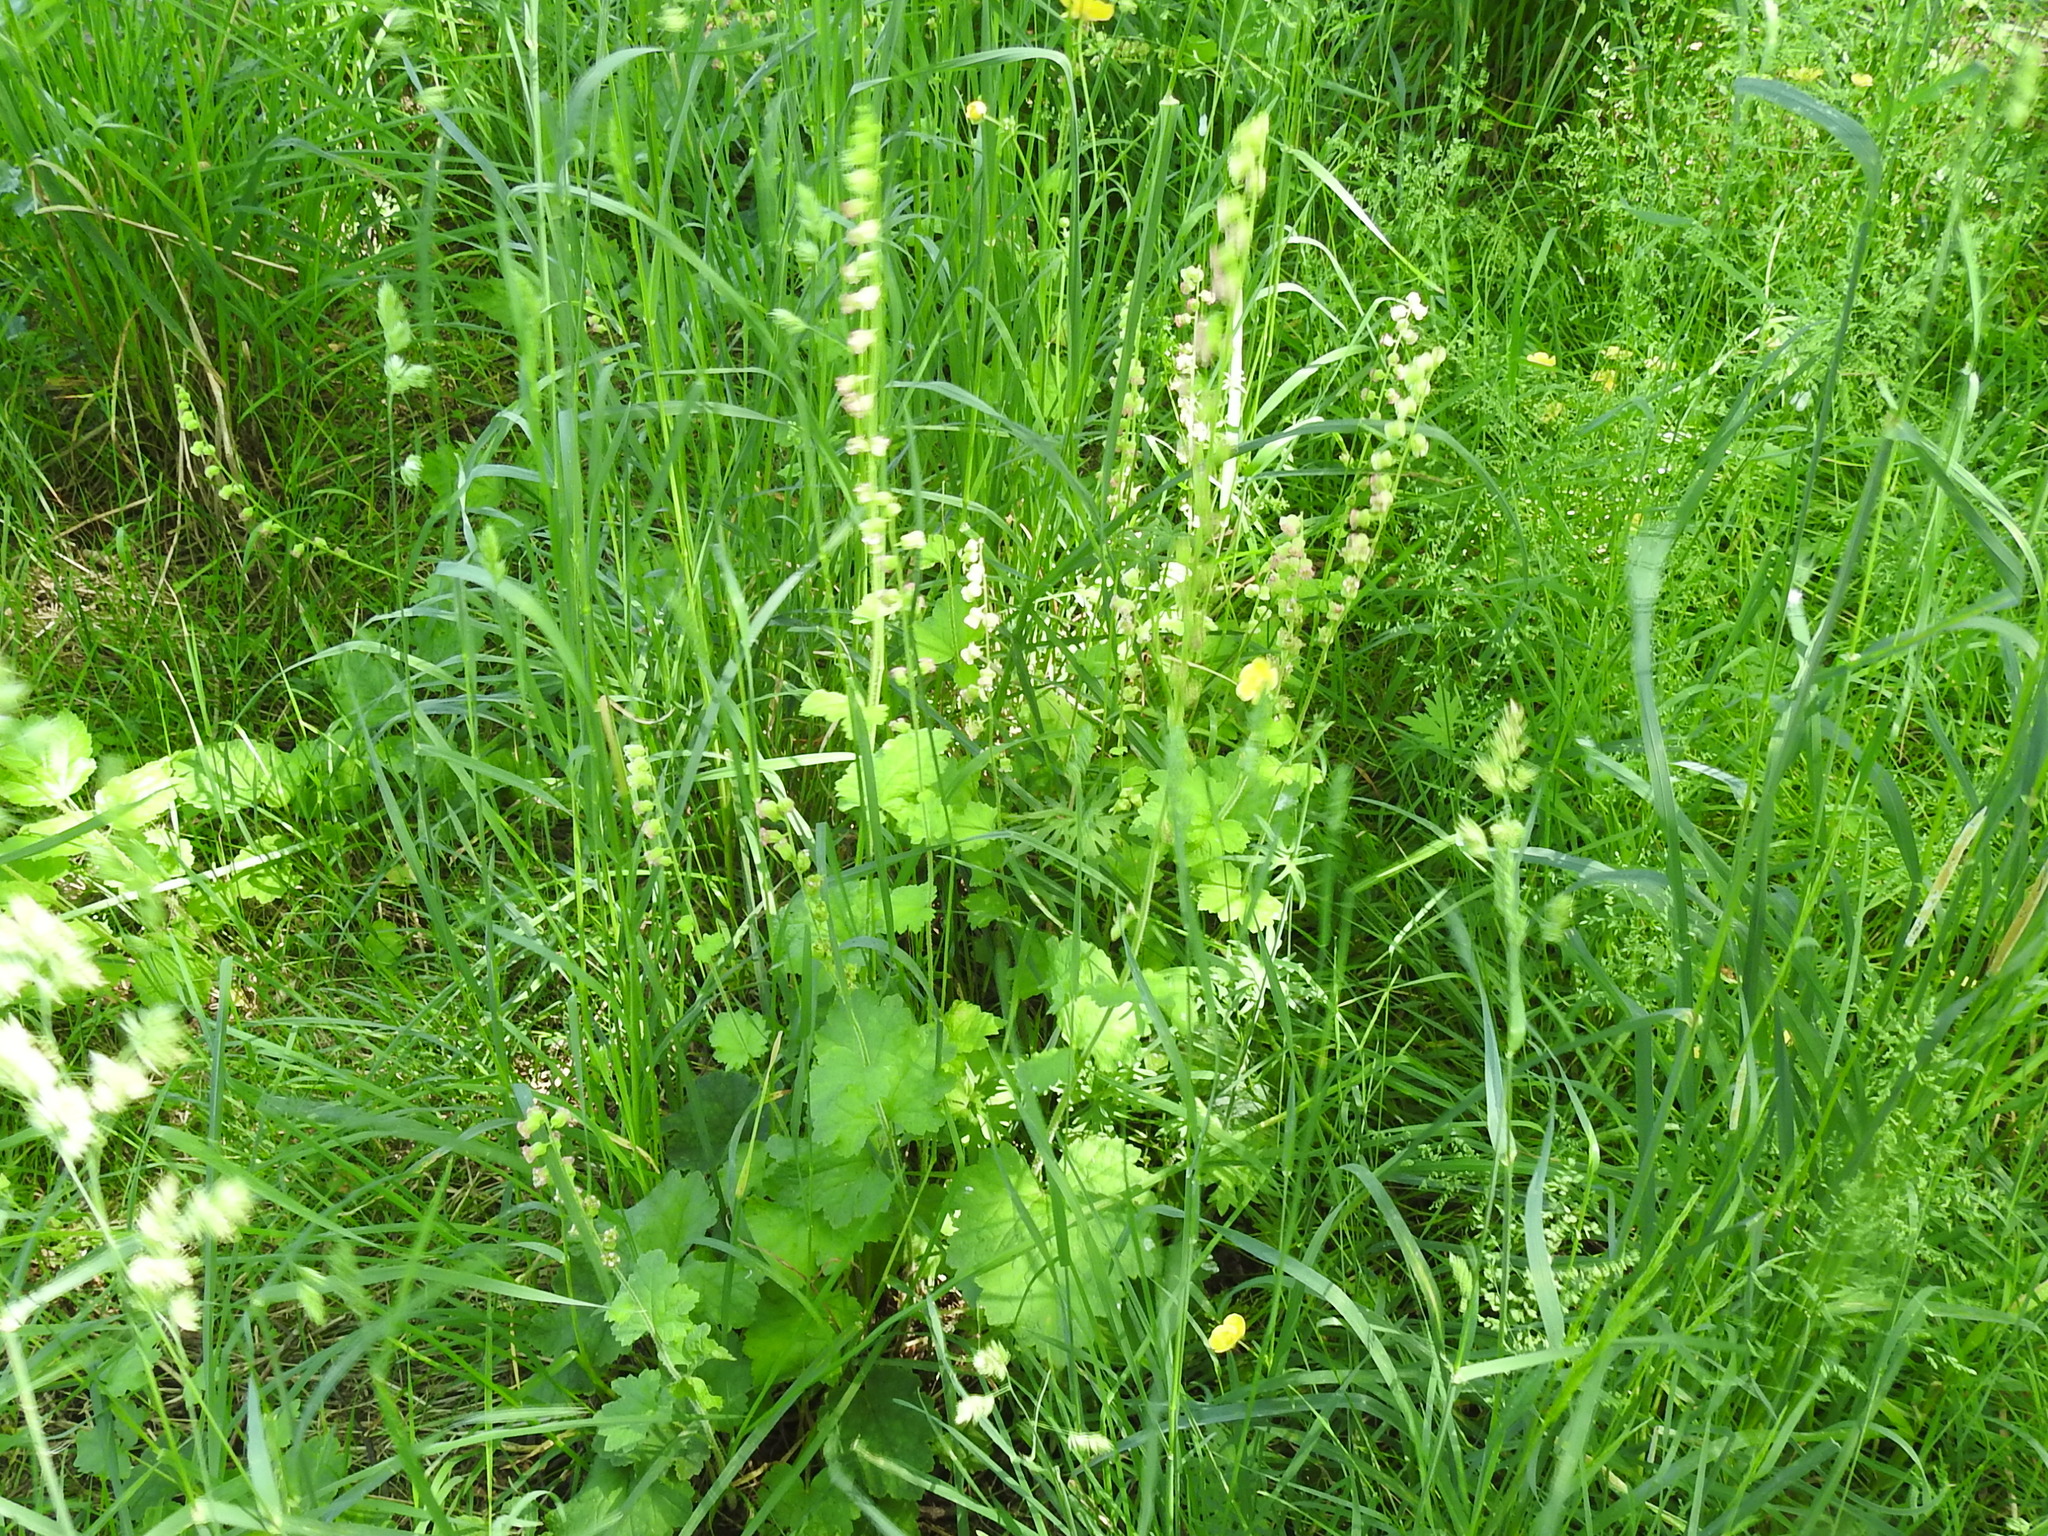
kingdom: Plantae
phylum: Tracheophyta
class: Magnoliopsida
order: Saxifragales
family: Saxifragaceae
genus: Tellima
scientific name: Tellima grandiflora
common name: Fringecups
